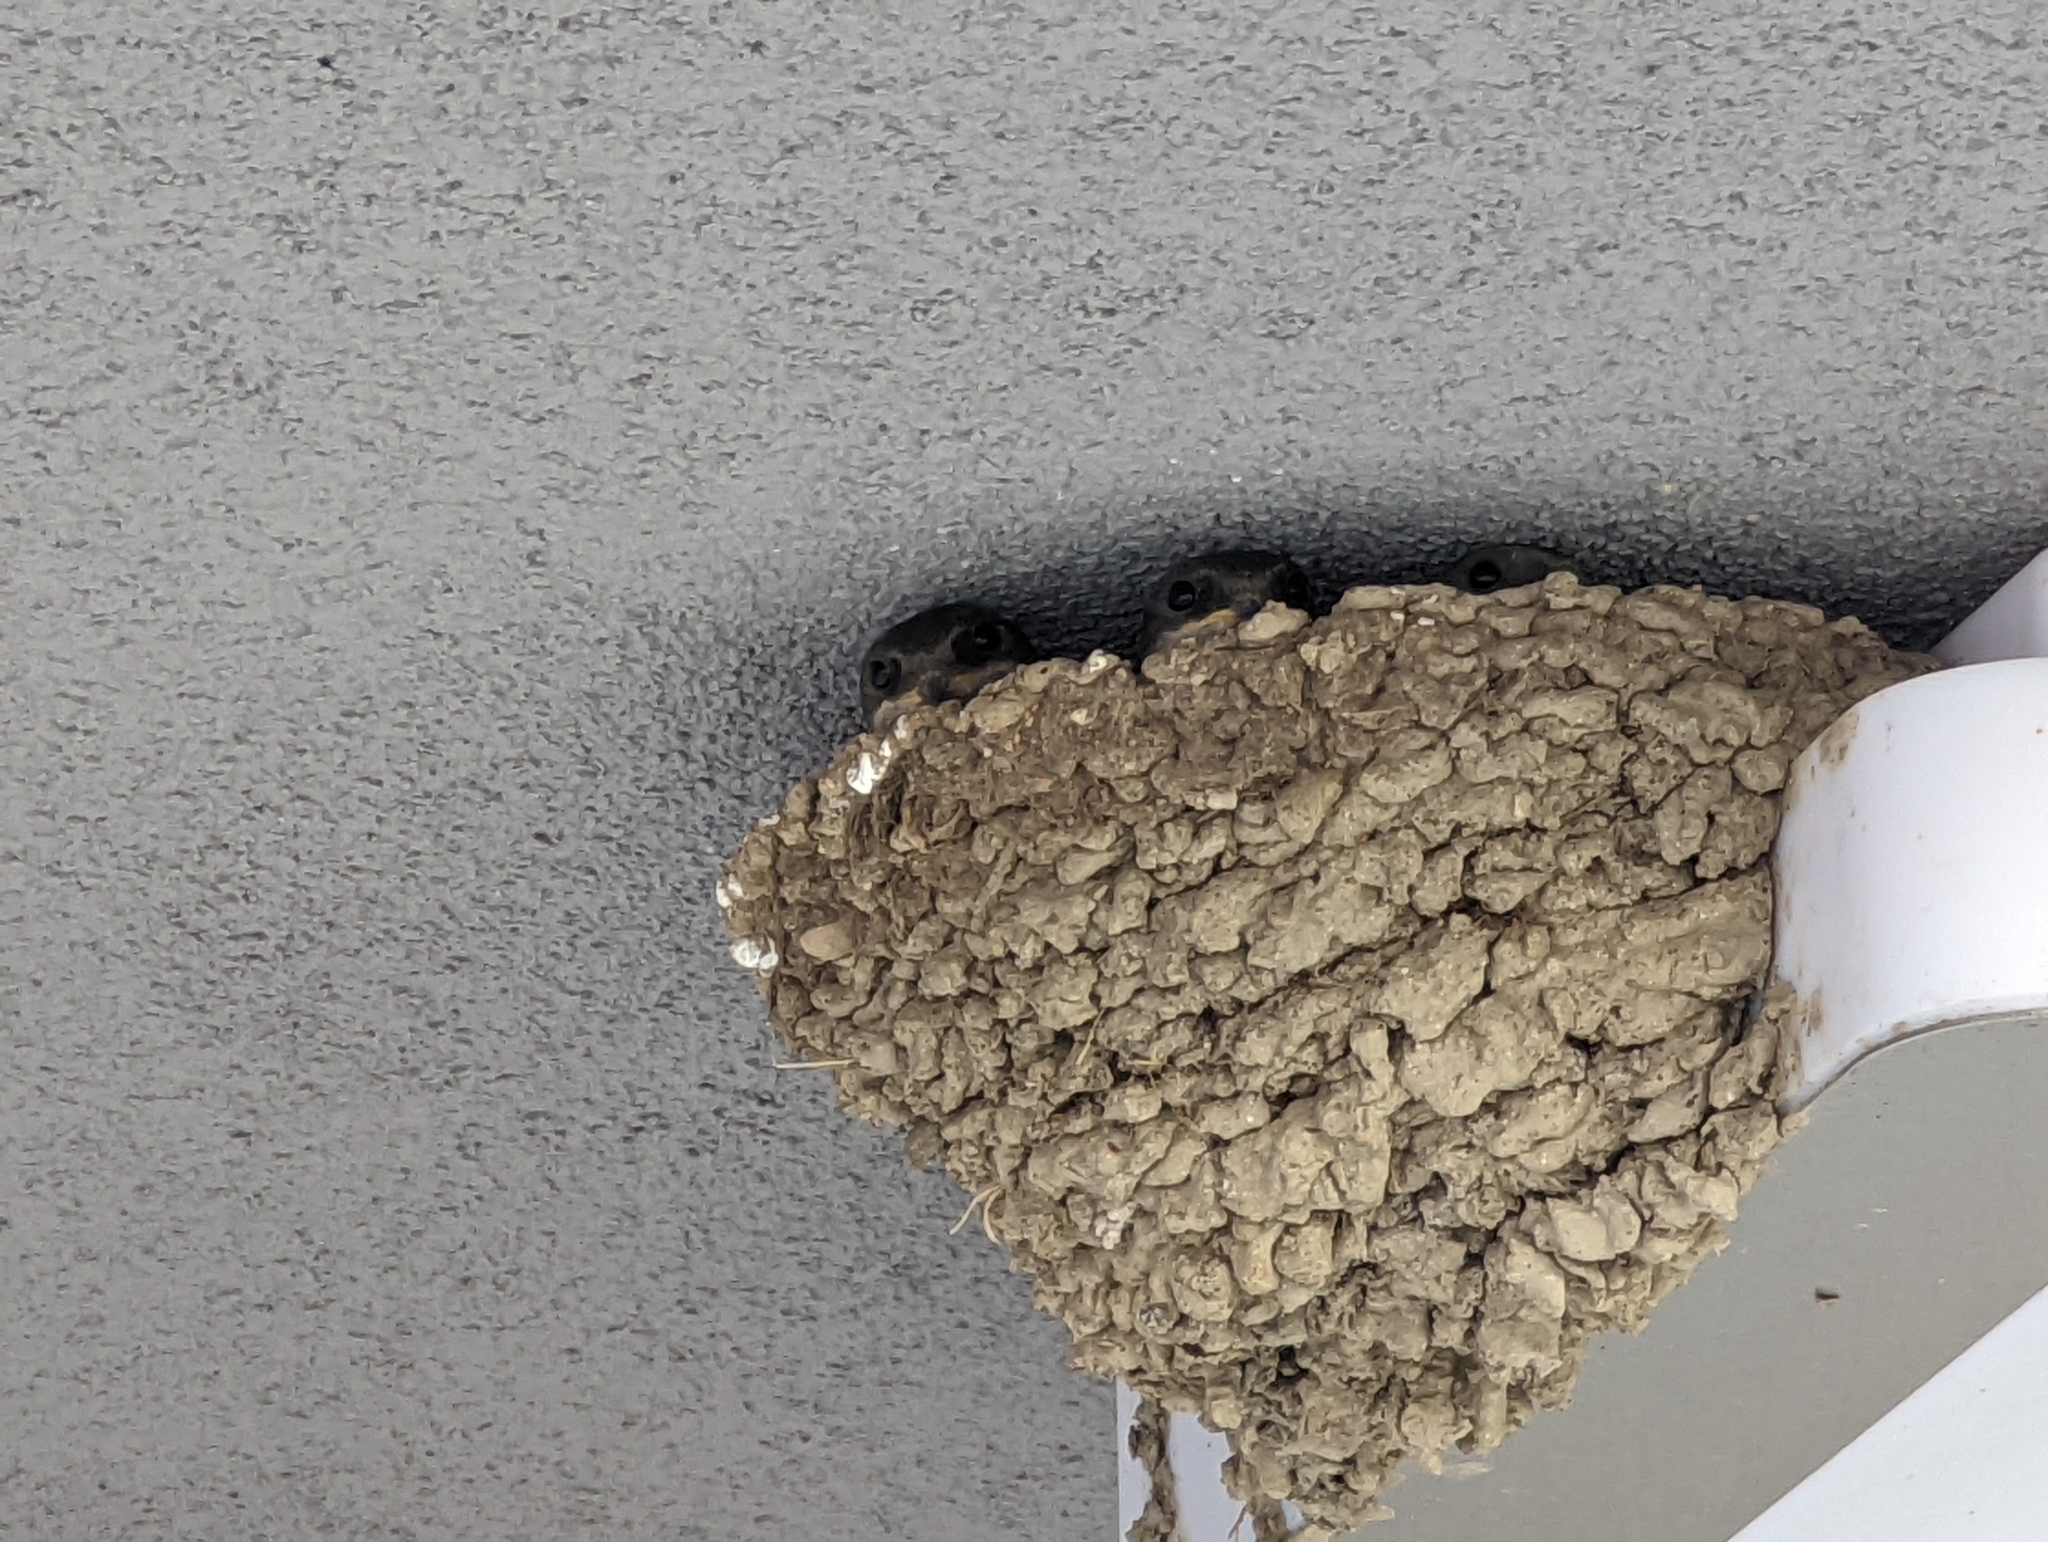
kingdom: Animalia
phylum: Chordata
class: Aves
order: Passeriformes
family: Hirundinidae
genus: Delichon
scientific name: Delichon urbicum
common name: Common house martin
